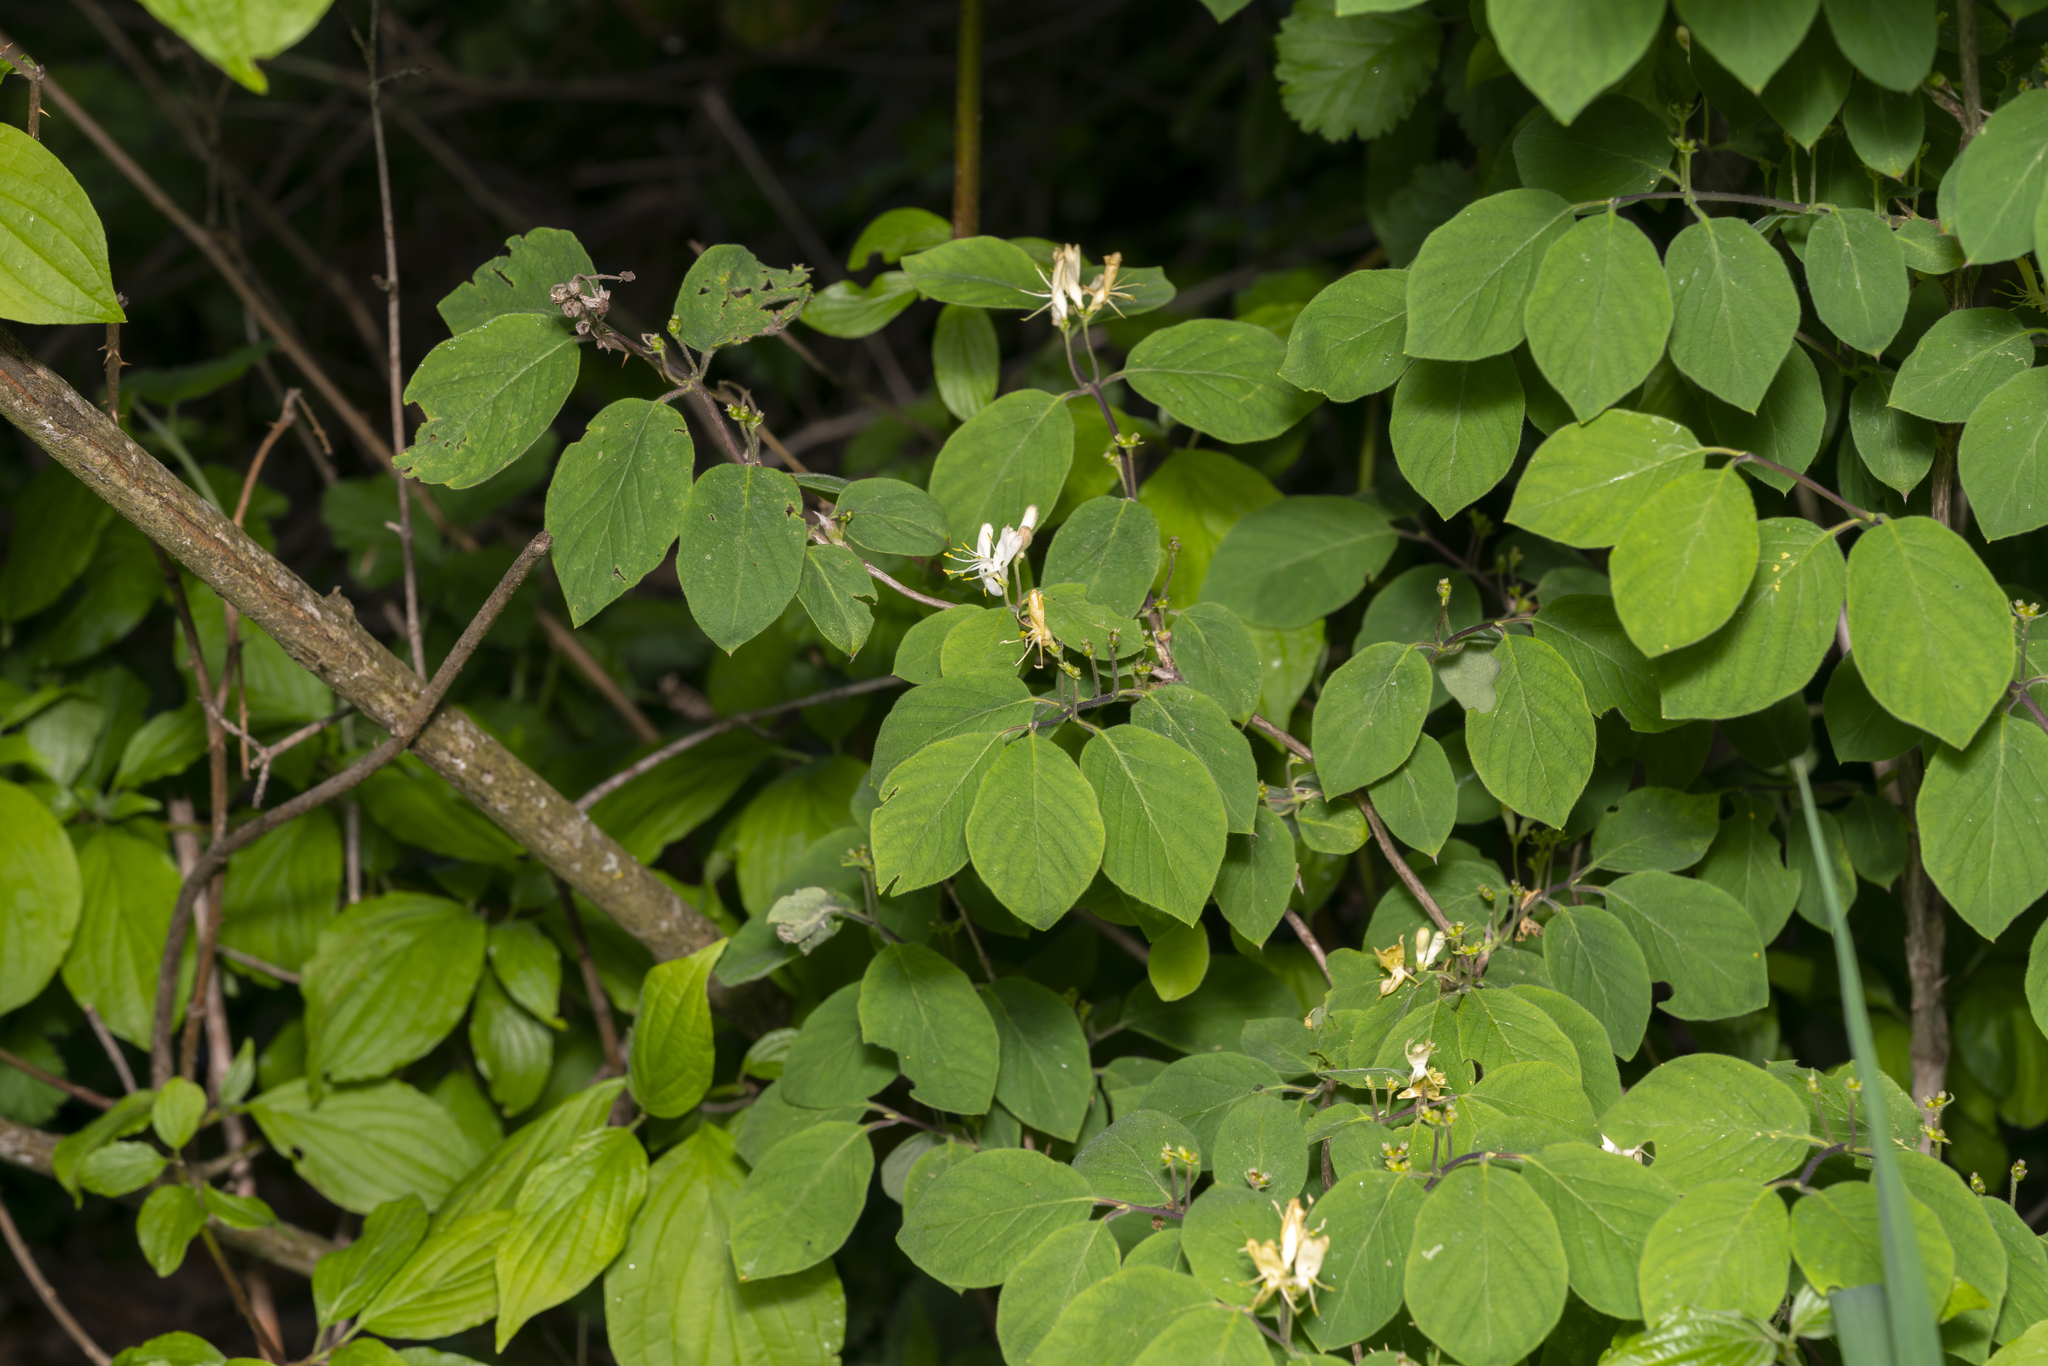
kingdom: Plantae
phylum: Tracheophyta
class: Magnoliopsida
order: Dipsacales
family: Caprifoliaceae
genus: Lonicera
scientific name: Lonicera xylosteum
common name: Fly honeysuckle
